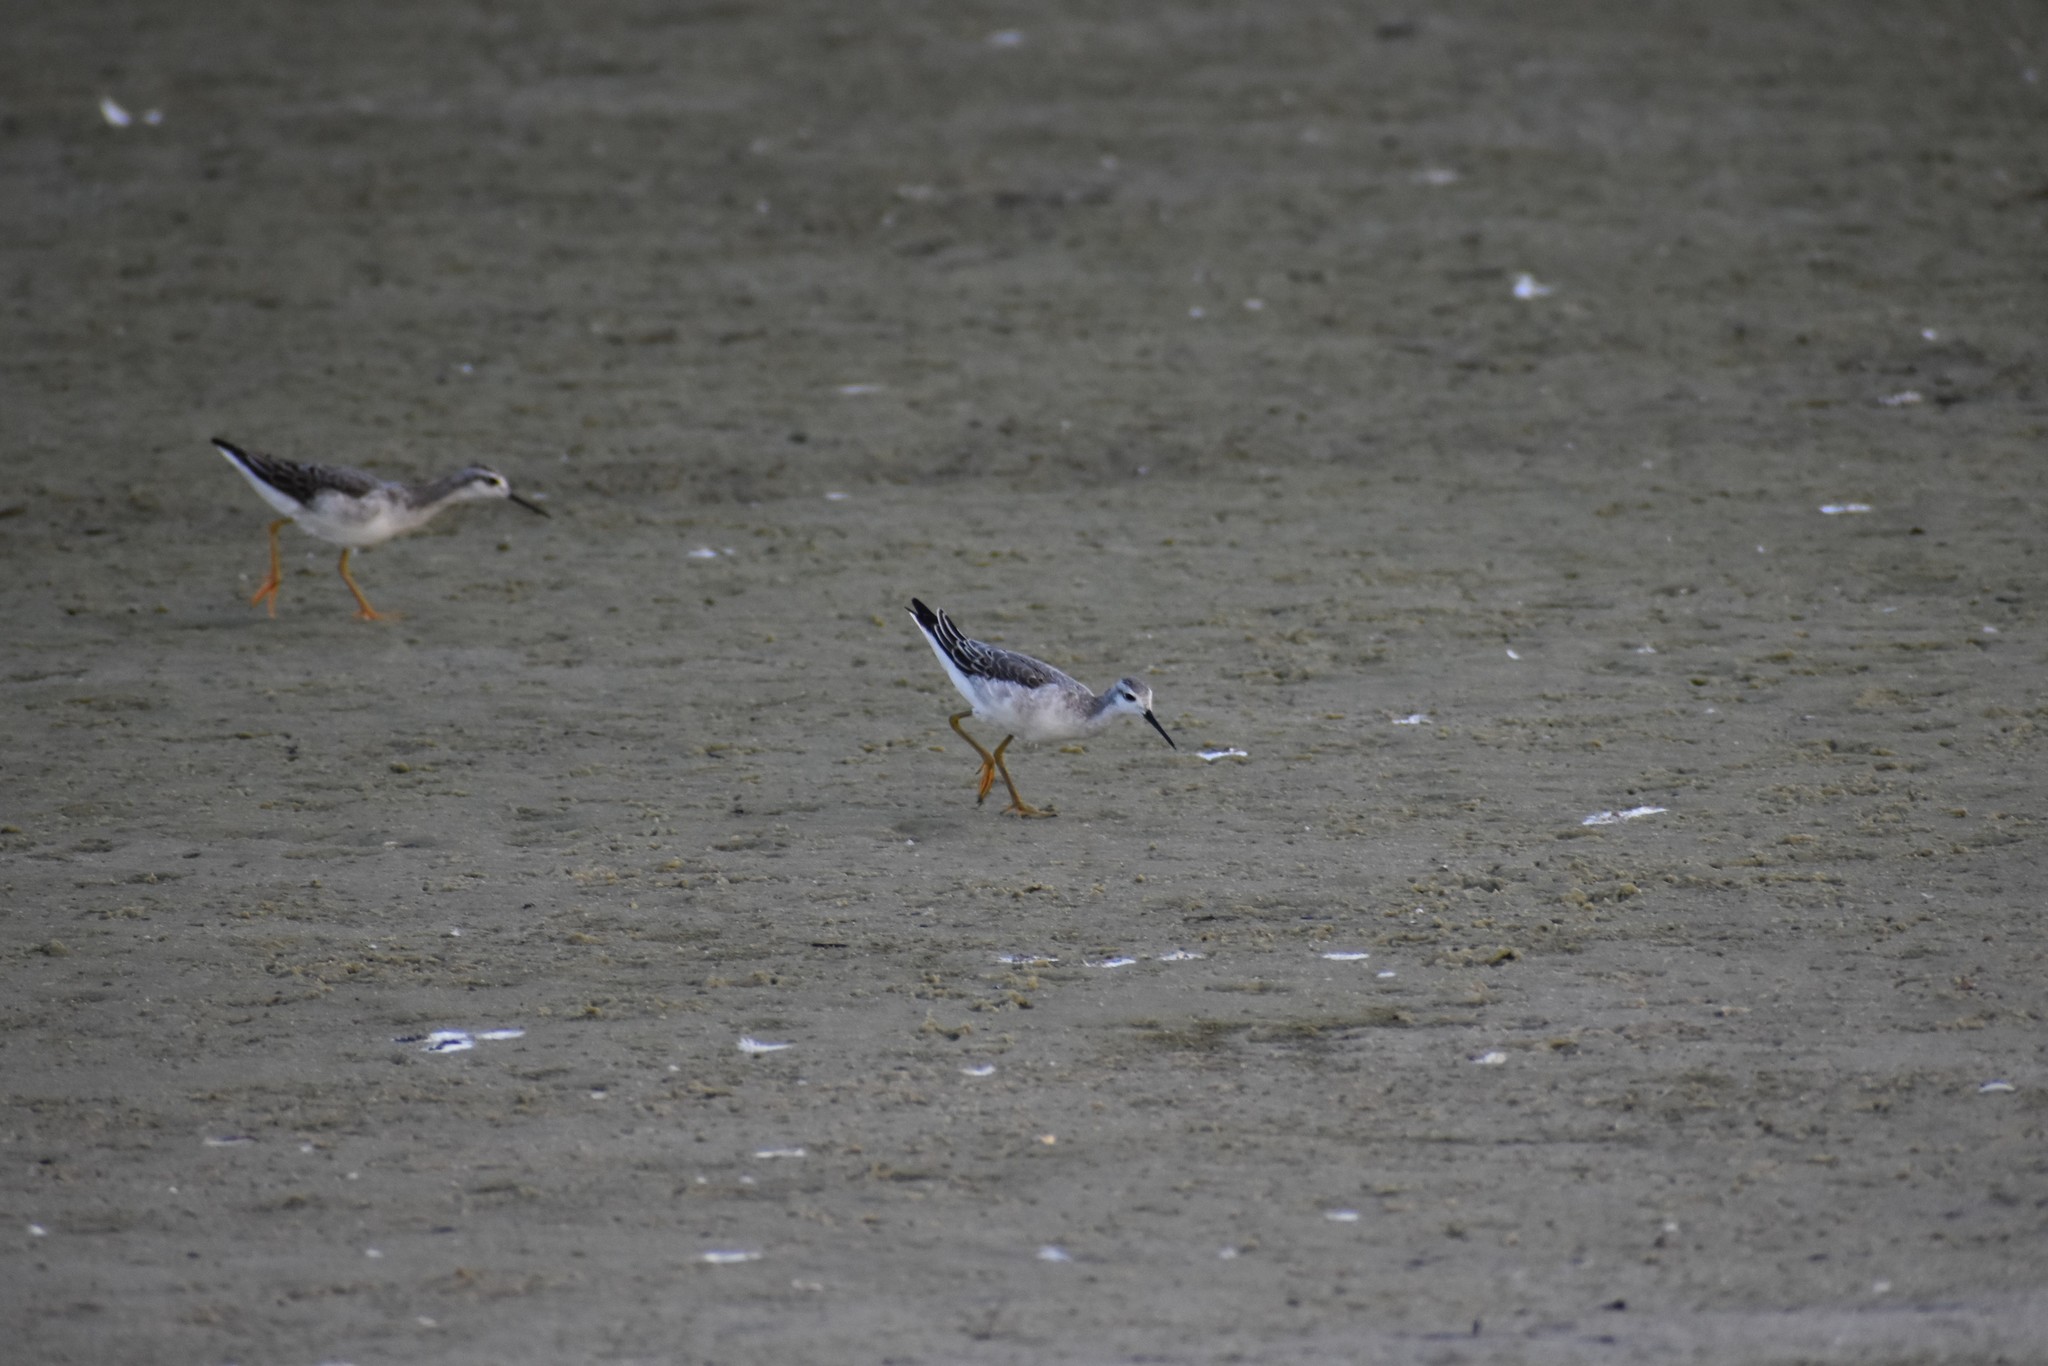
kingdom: Animalia
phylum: Chordata
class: Aves
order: Charadriiformes
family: Scolopacidae
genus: Phalaropus
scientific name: Phalaropus tricolor
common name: Wilson's phalarope
